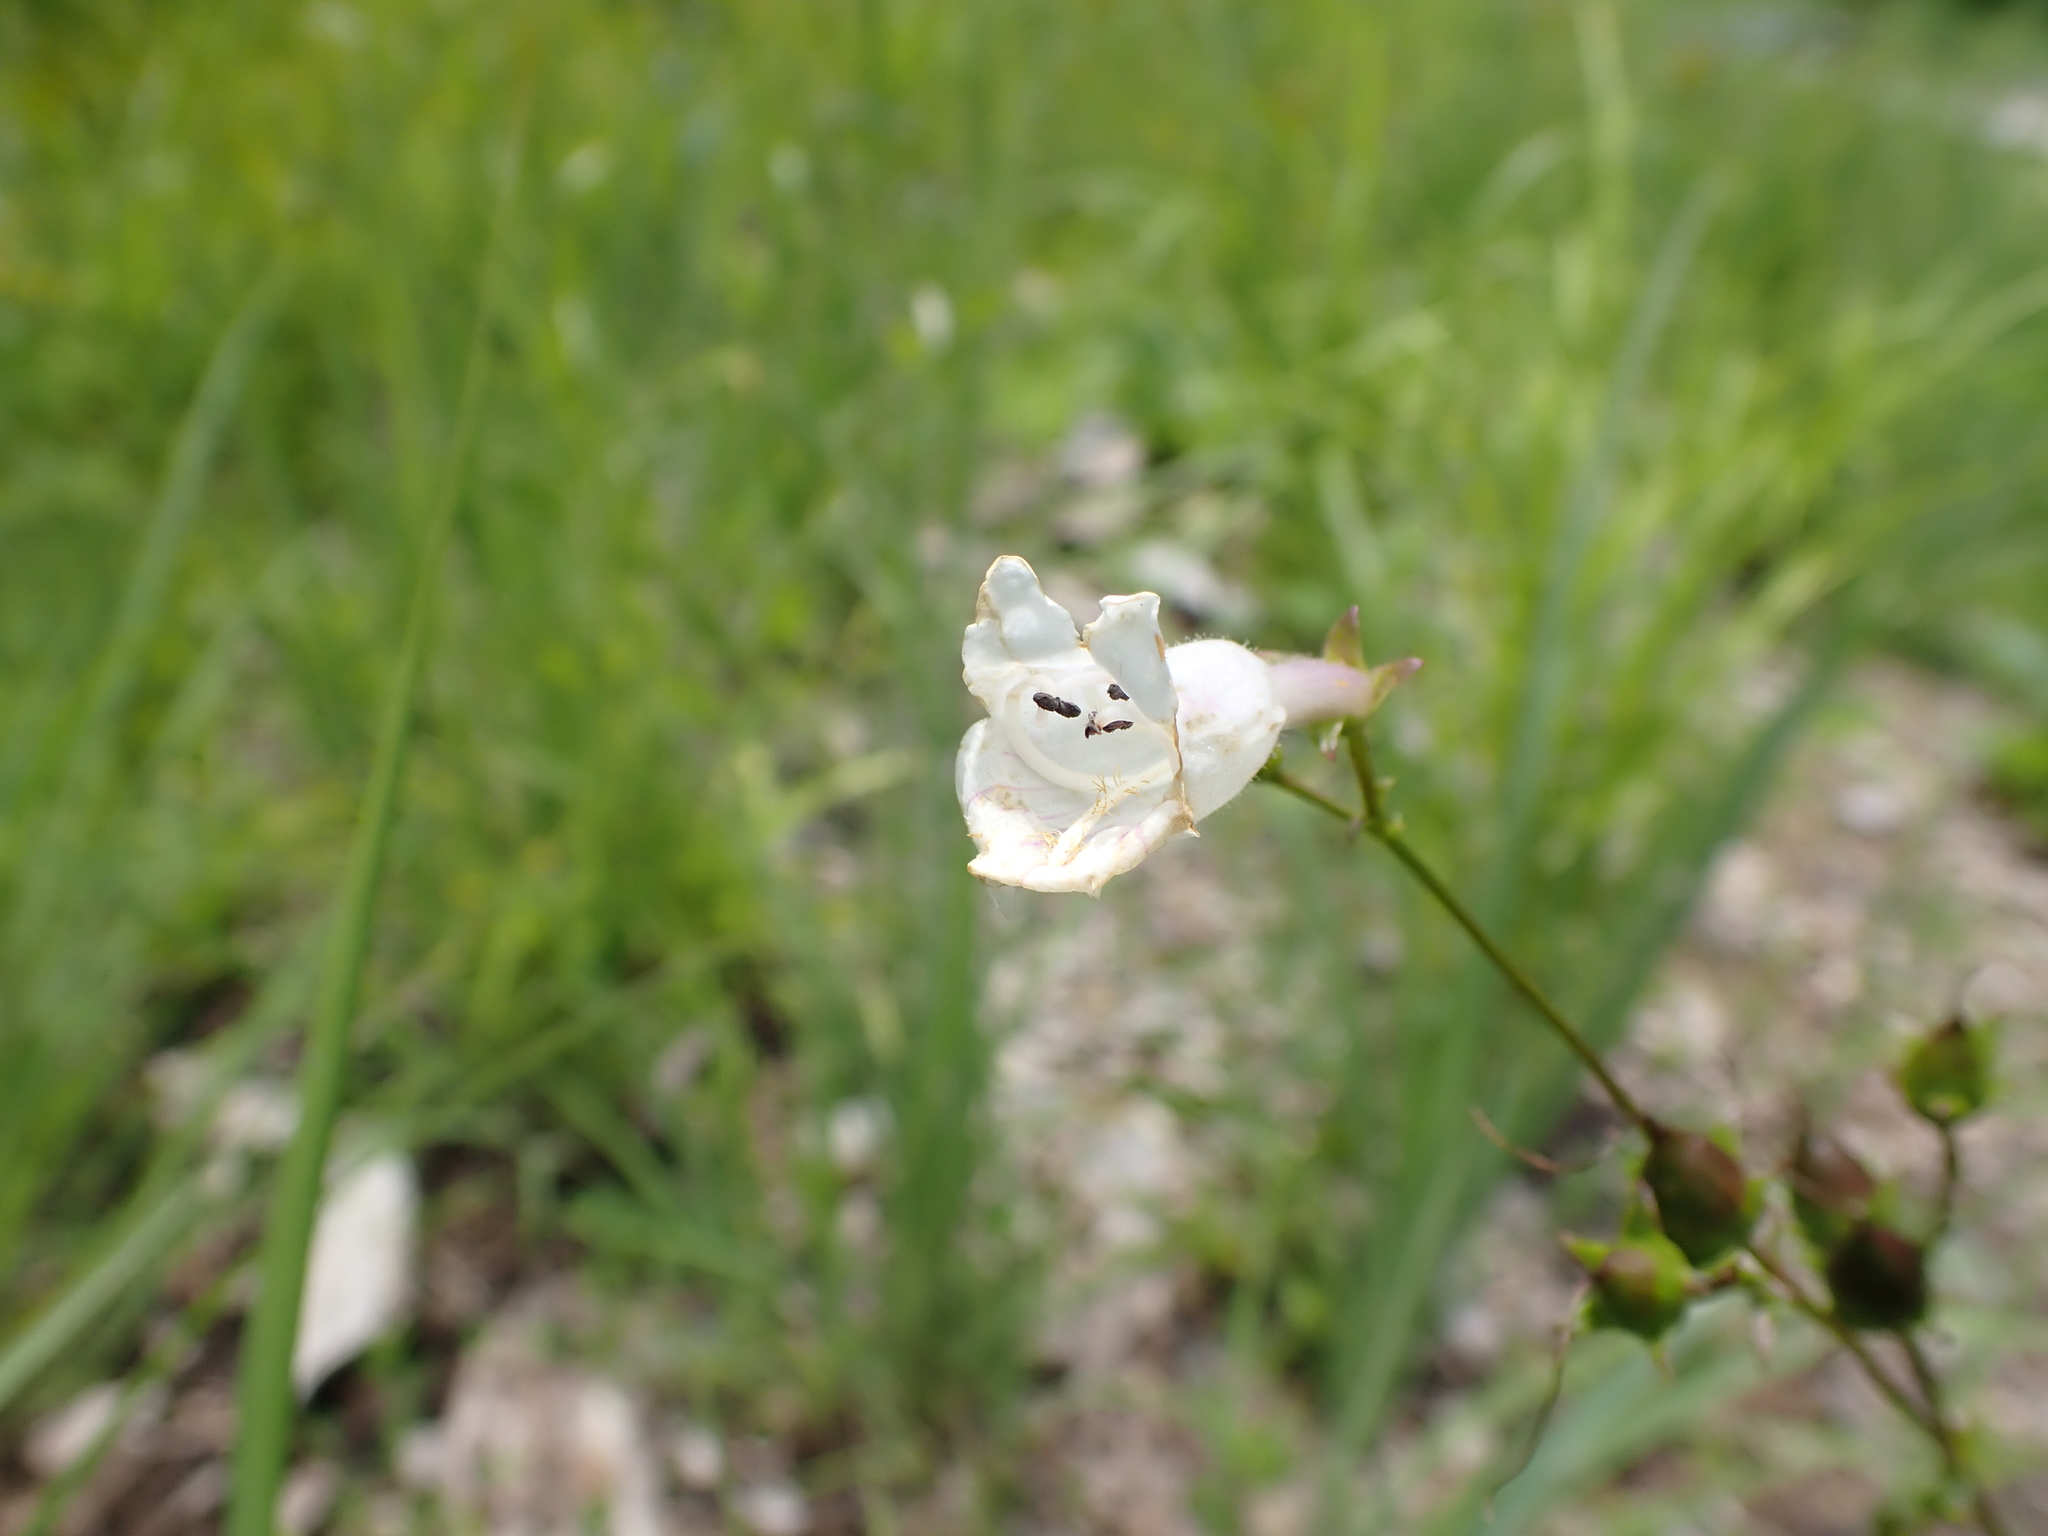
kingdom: Plantae
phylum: Tracheophyta
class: Magnoliopsida
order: Lamiales
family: Plantaginaceae
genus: Penstemon
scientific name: Penstemon digitalis
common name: Foxglove beardtongue
